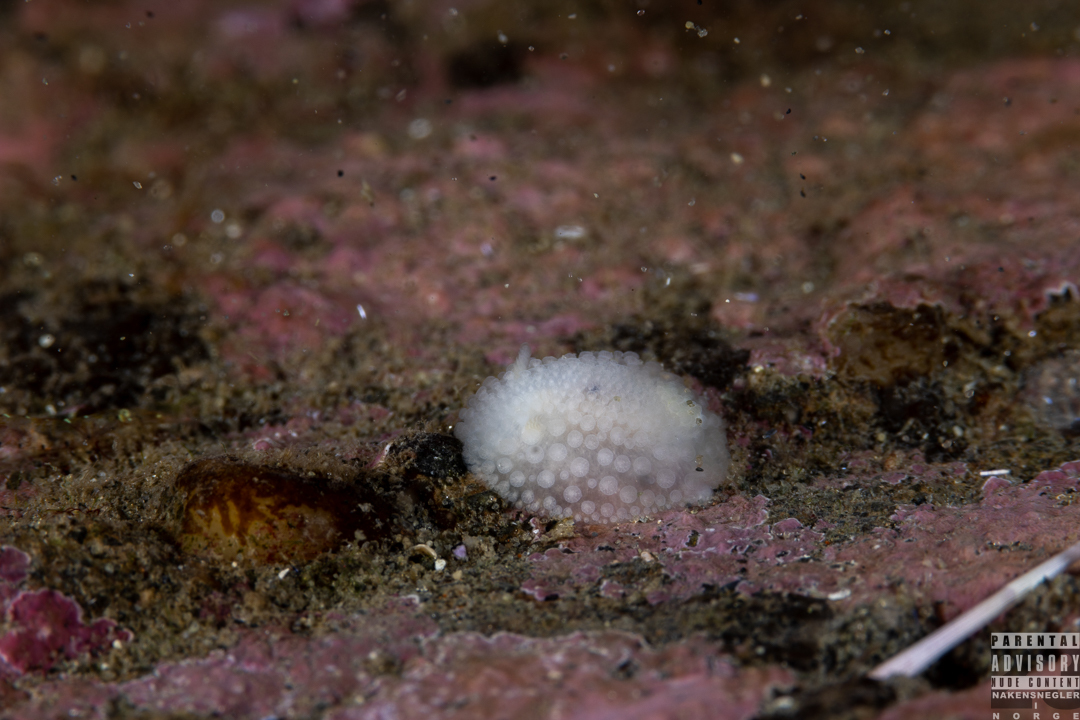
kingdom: Animalia
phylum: Mollusca
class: Gastropoda
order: Nudibranchia
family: Onchidorididae
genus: Onchidoris
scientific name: Onchidoris muricata
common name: Rough doris
